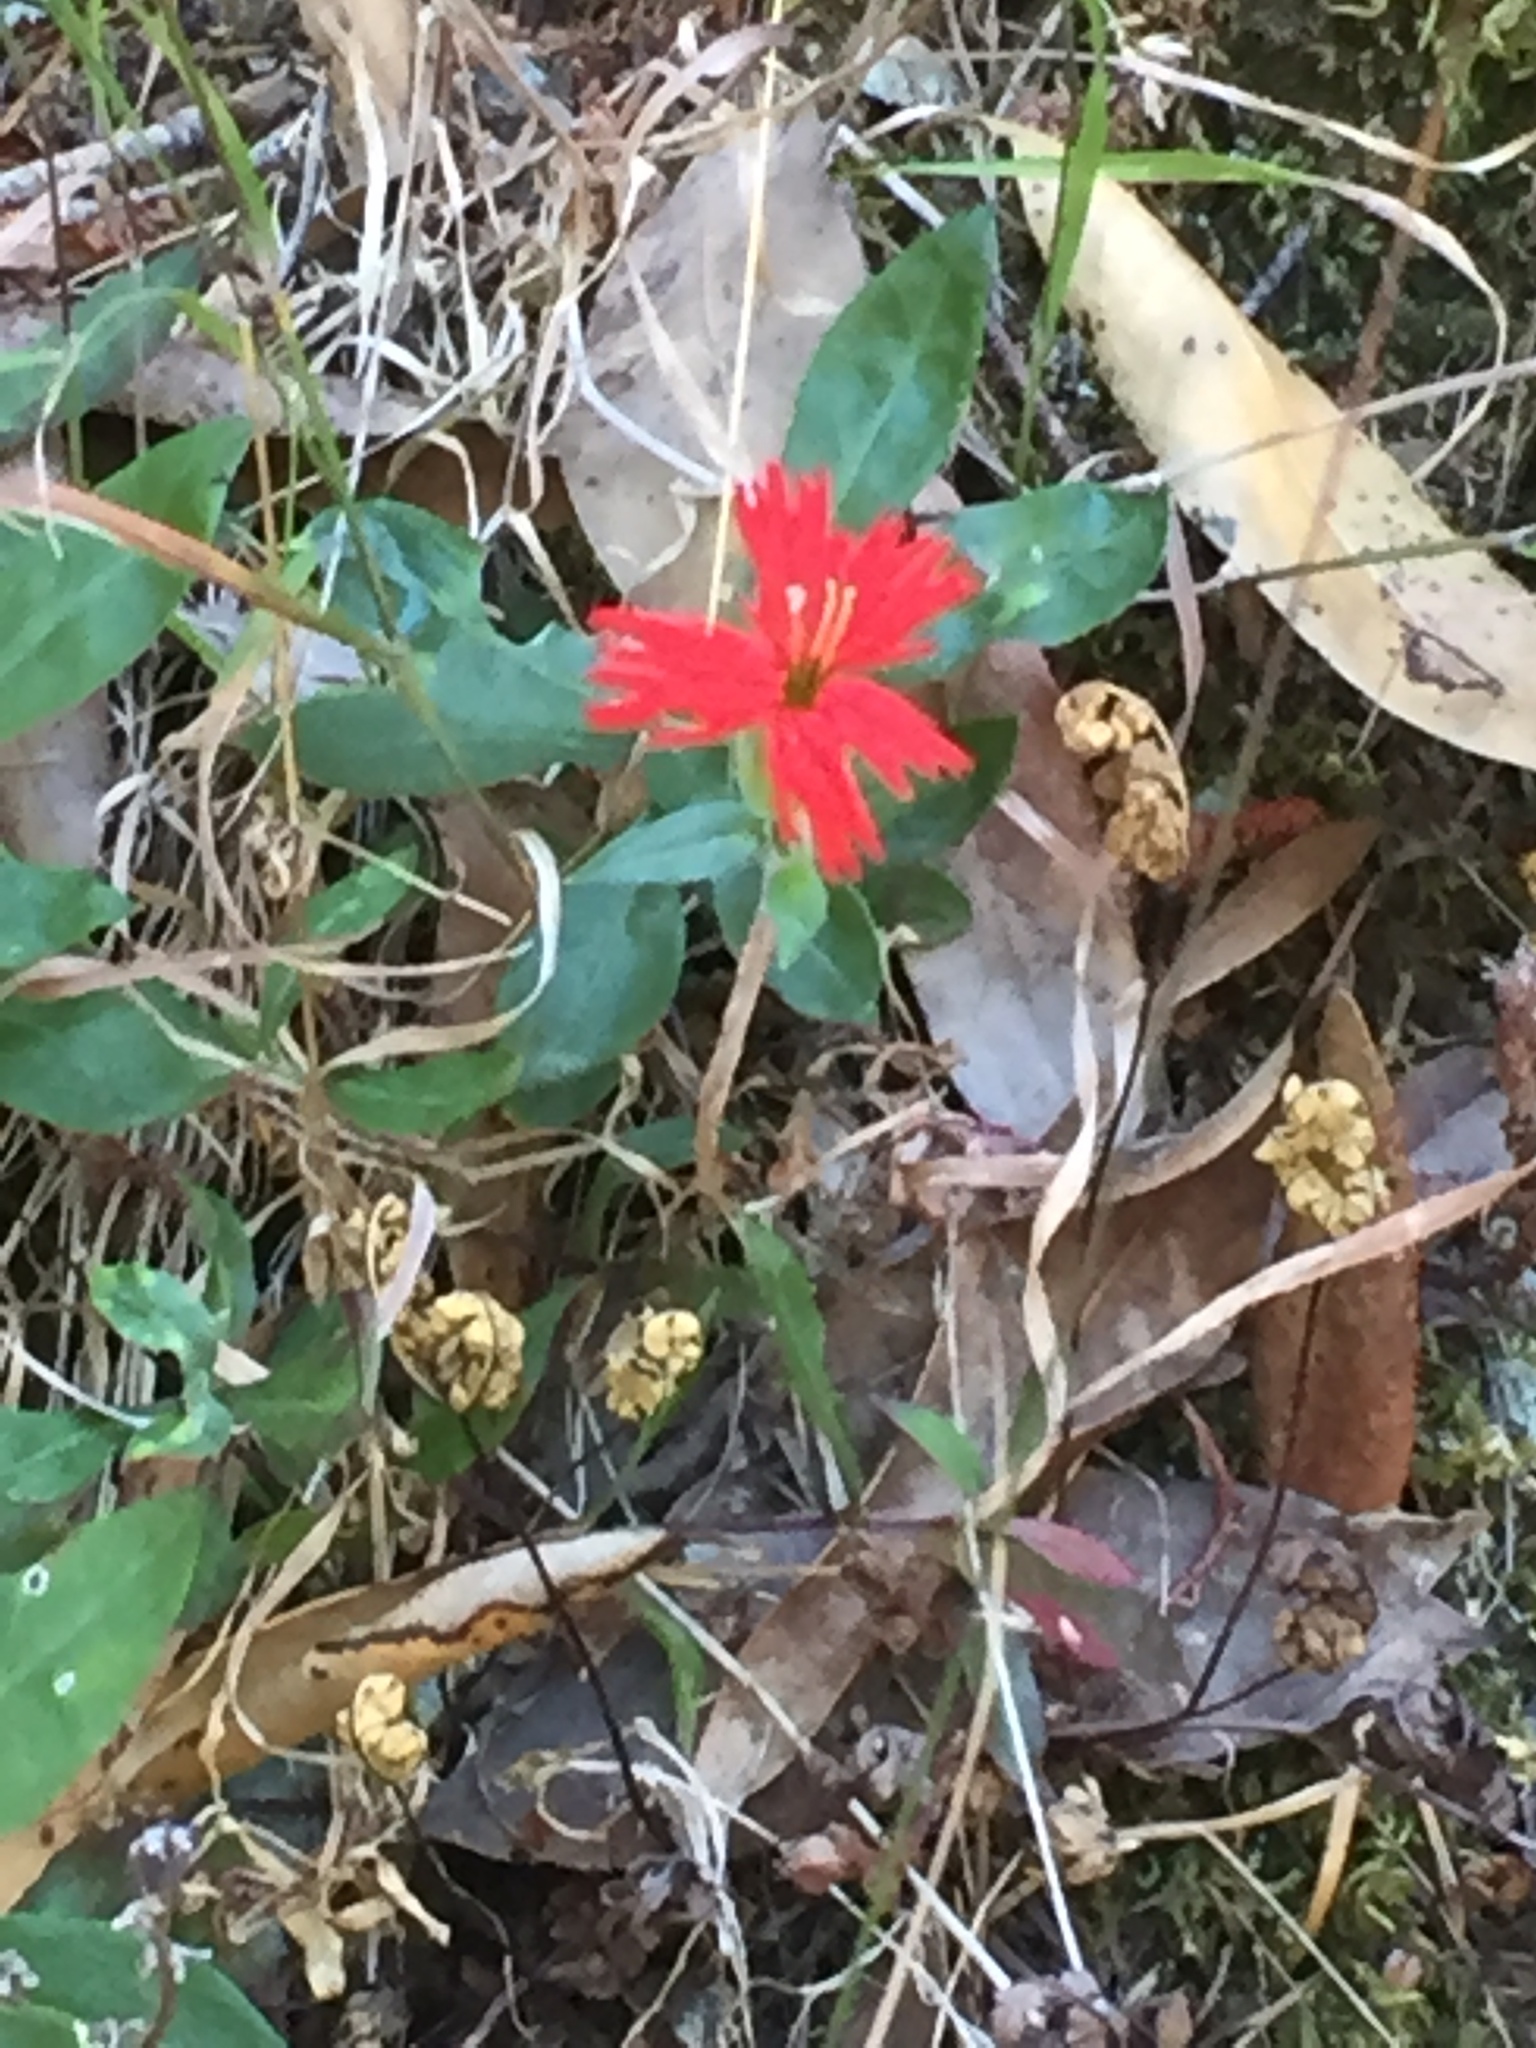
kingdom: Plantae
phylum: Tracheophyta
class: Magnoliopsida
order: Caryophyllales
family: Caryophyllaceae
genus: Silene
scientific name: Silene laciniata
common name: Indian-pink
